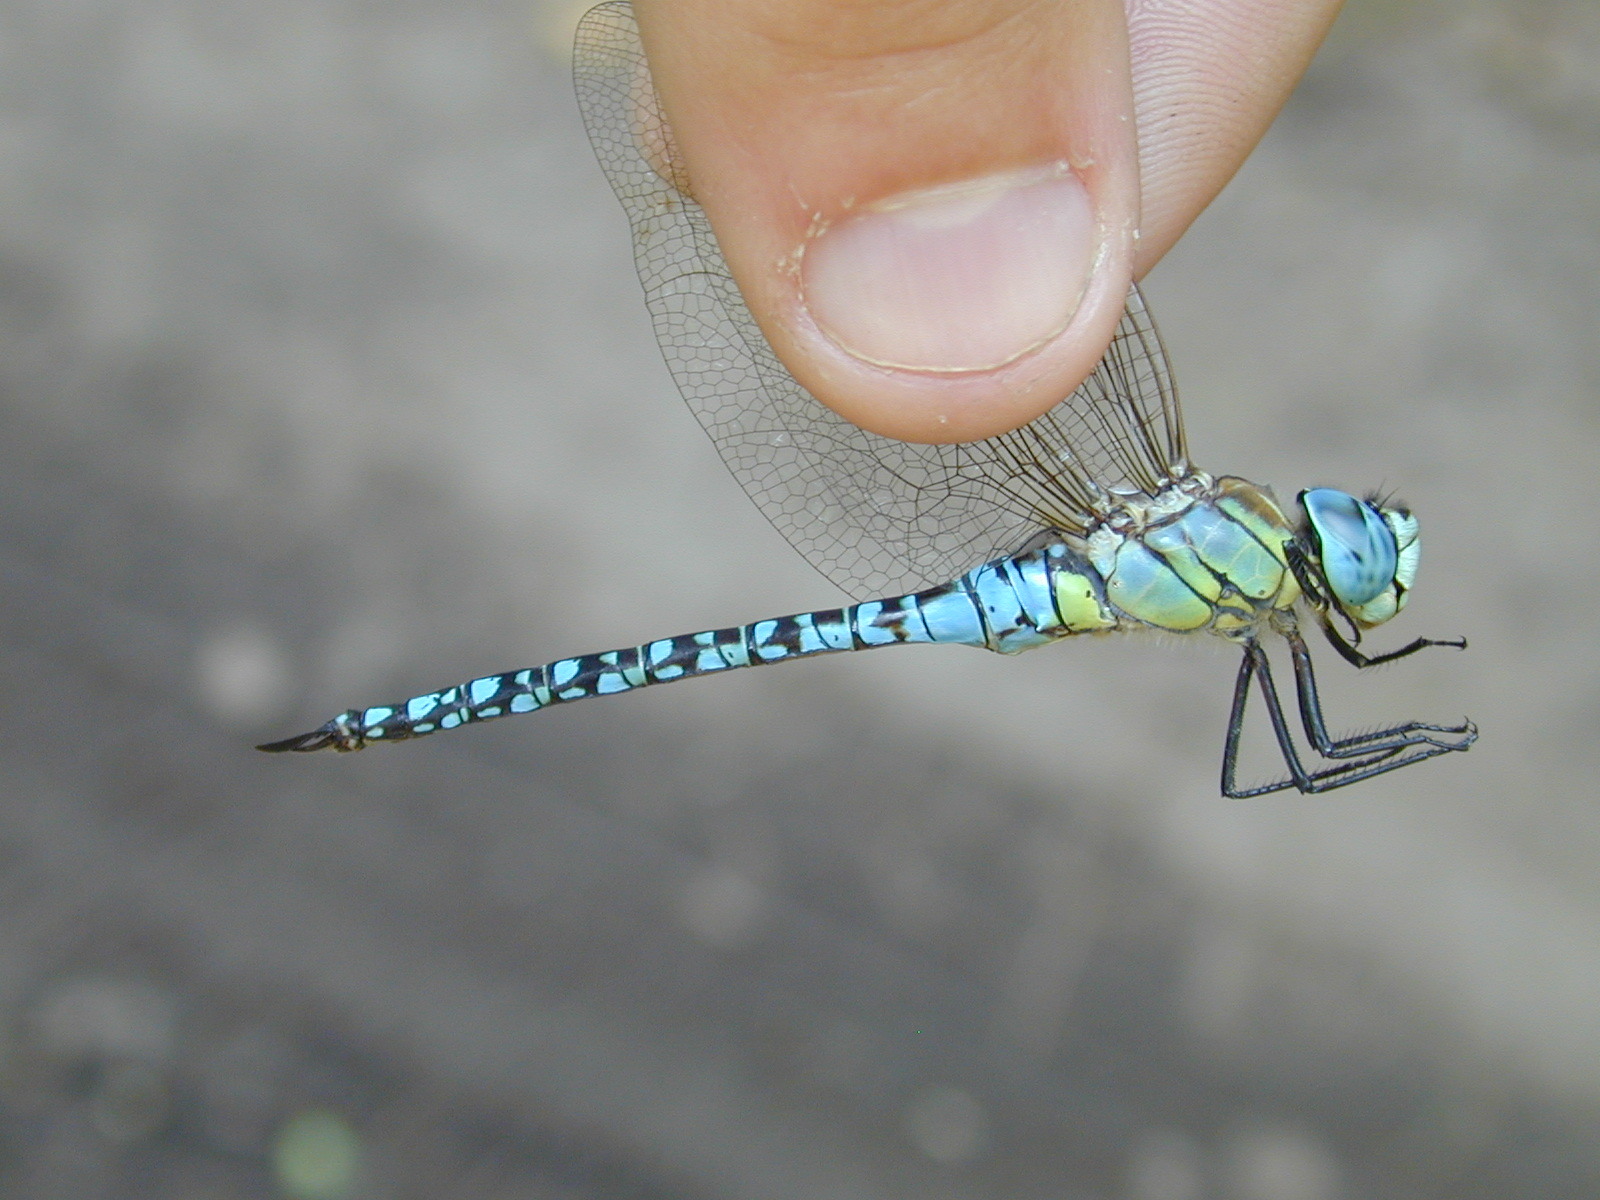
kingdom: Animalia
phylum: Arthropoda
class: Insecta
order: Odonata
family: Aeshnidae
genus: Aeshna
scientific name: Aeshna affinis
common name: Southern migrant hawker
